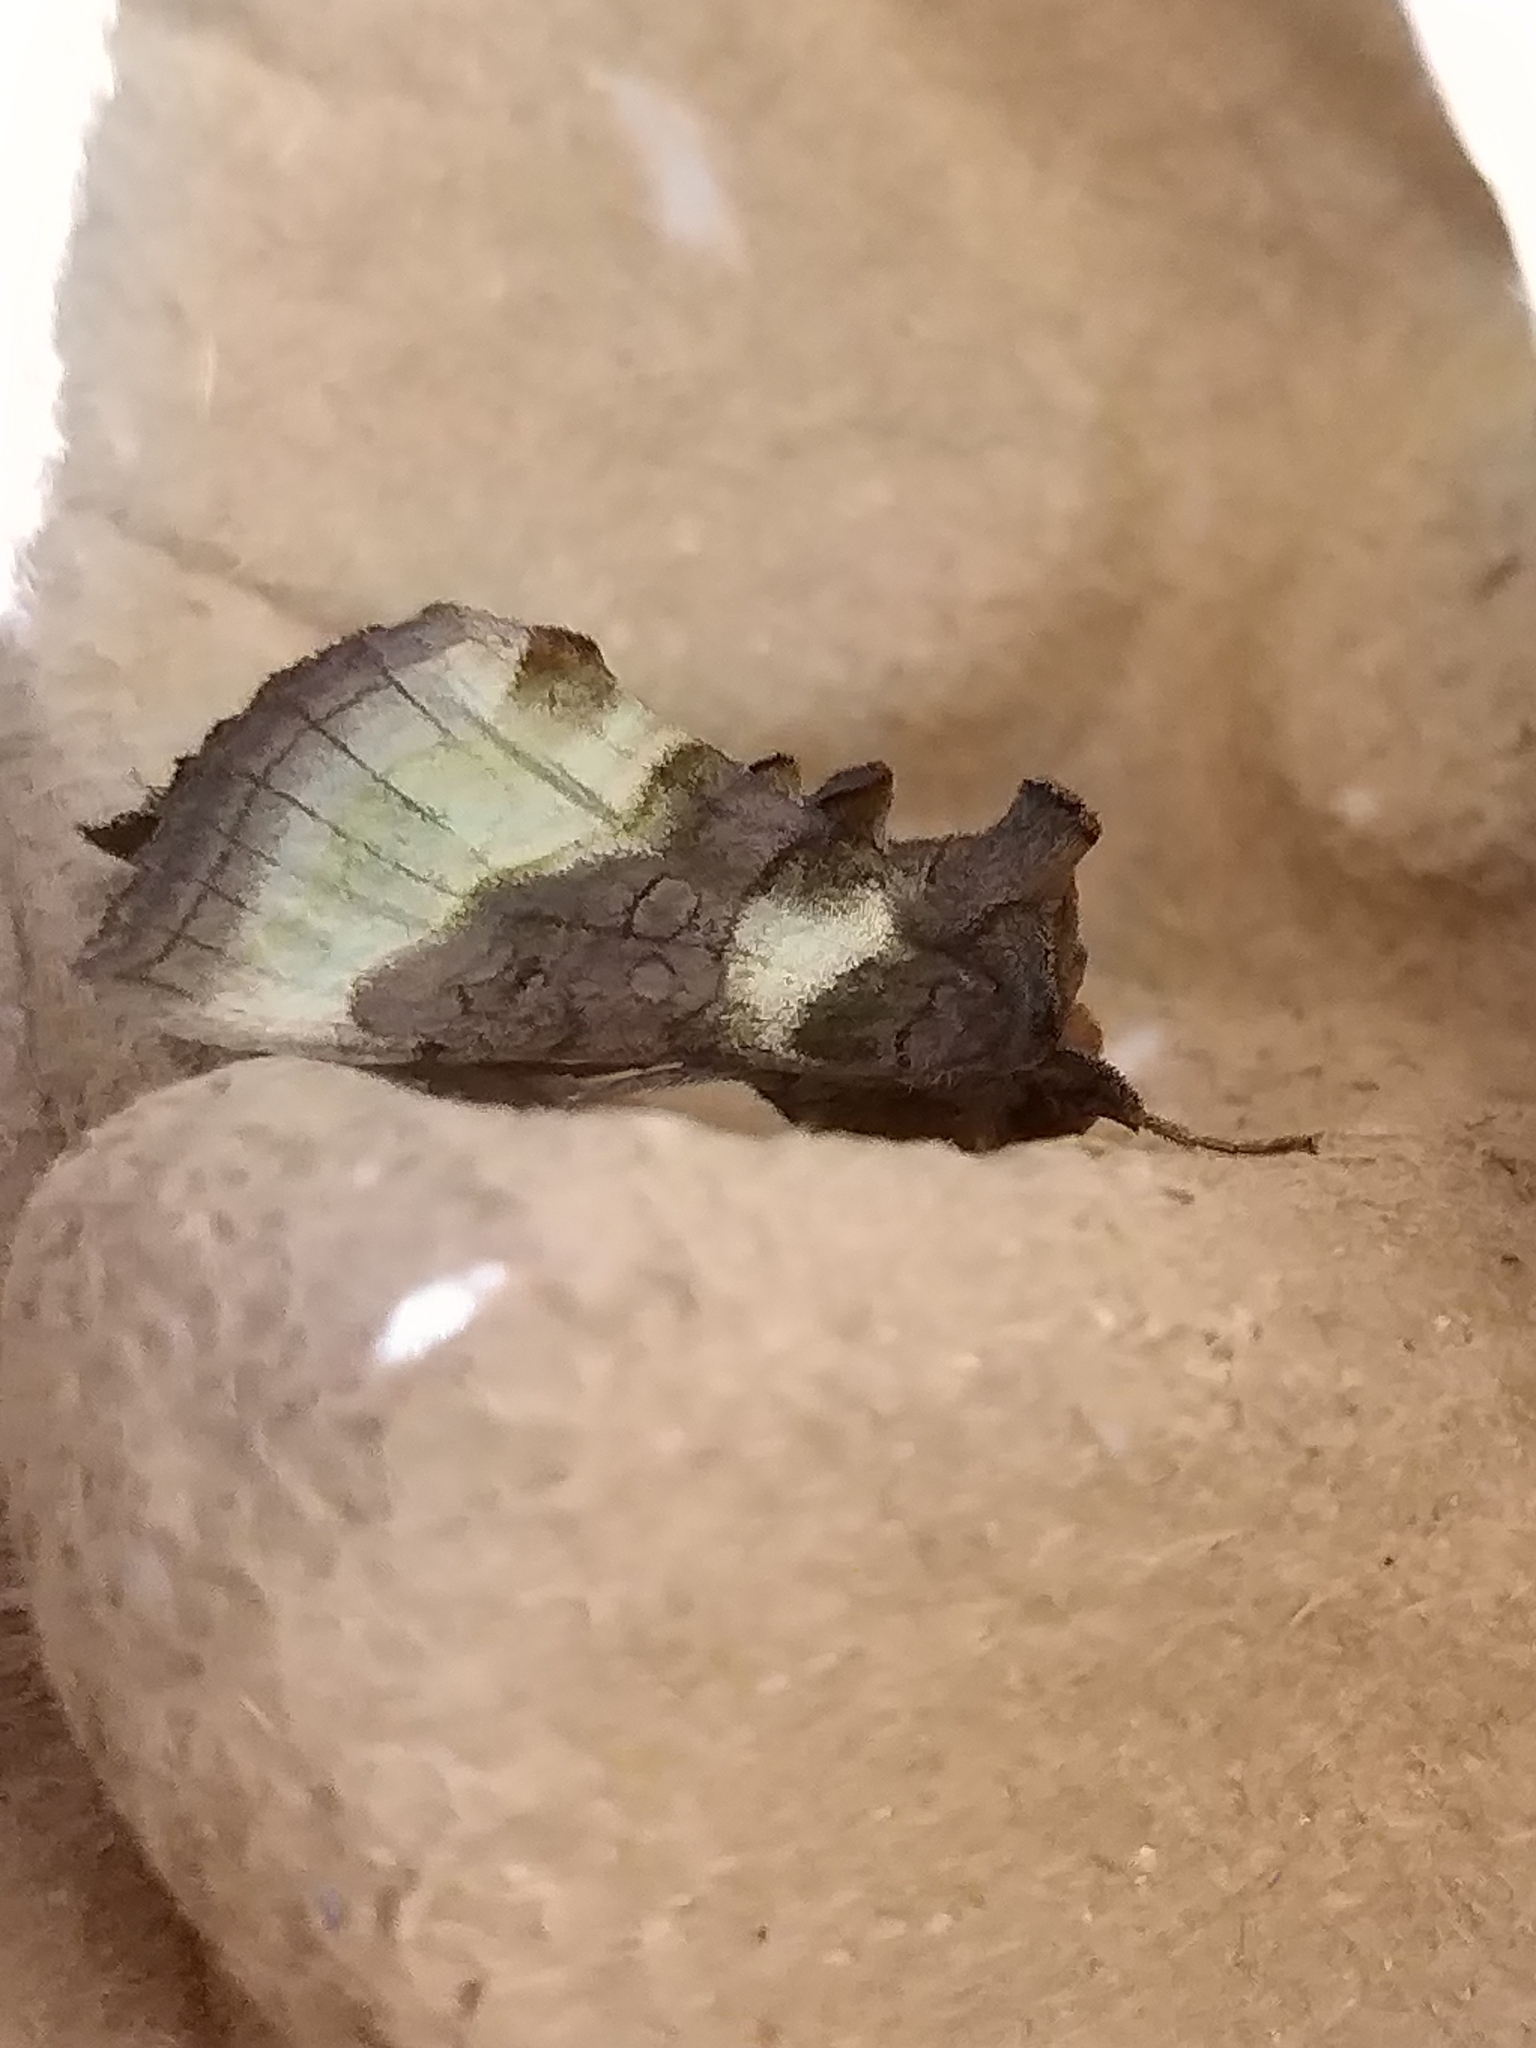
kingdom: Animalia
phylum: Arthropoda
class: Insecta
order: Lepidoptera
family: Noctuidae
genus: Diachrysia
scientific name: Diachrysia chrysitis
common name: Burnished brass
